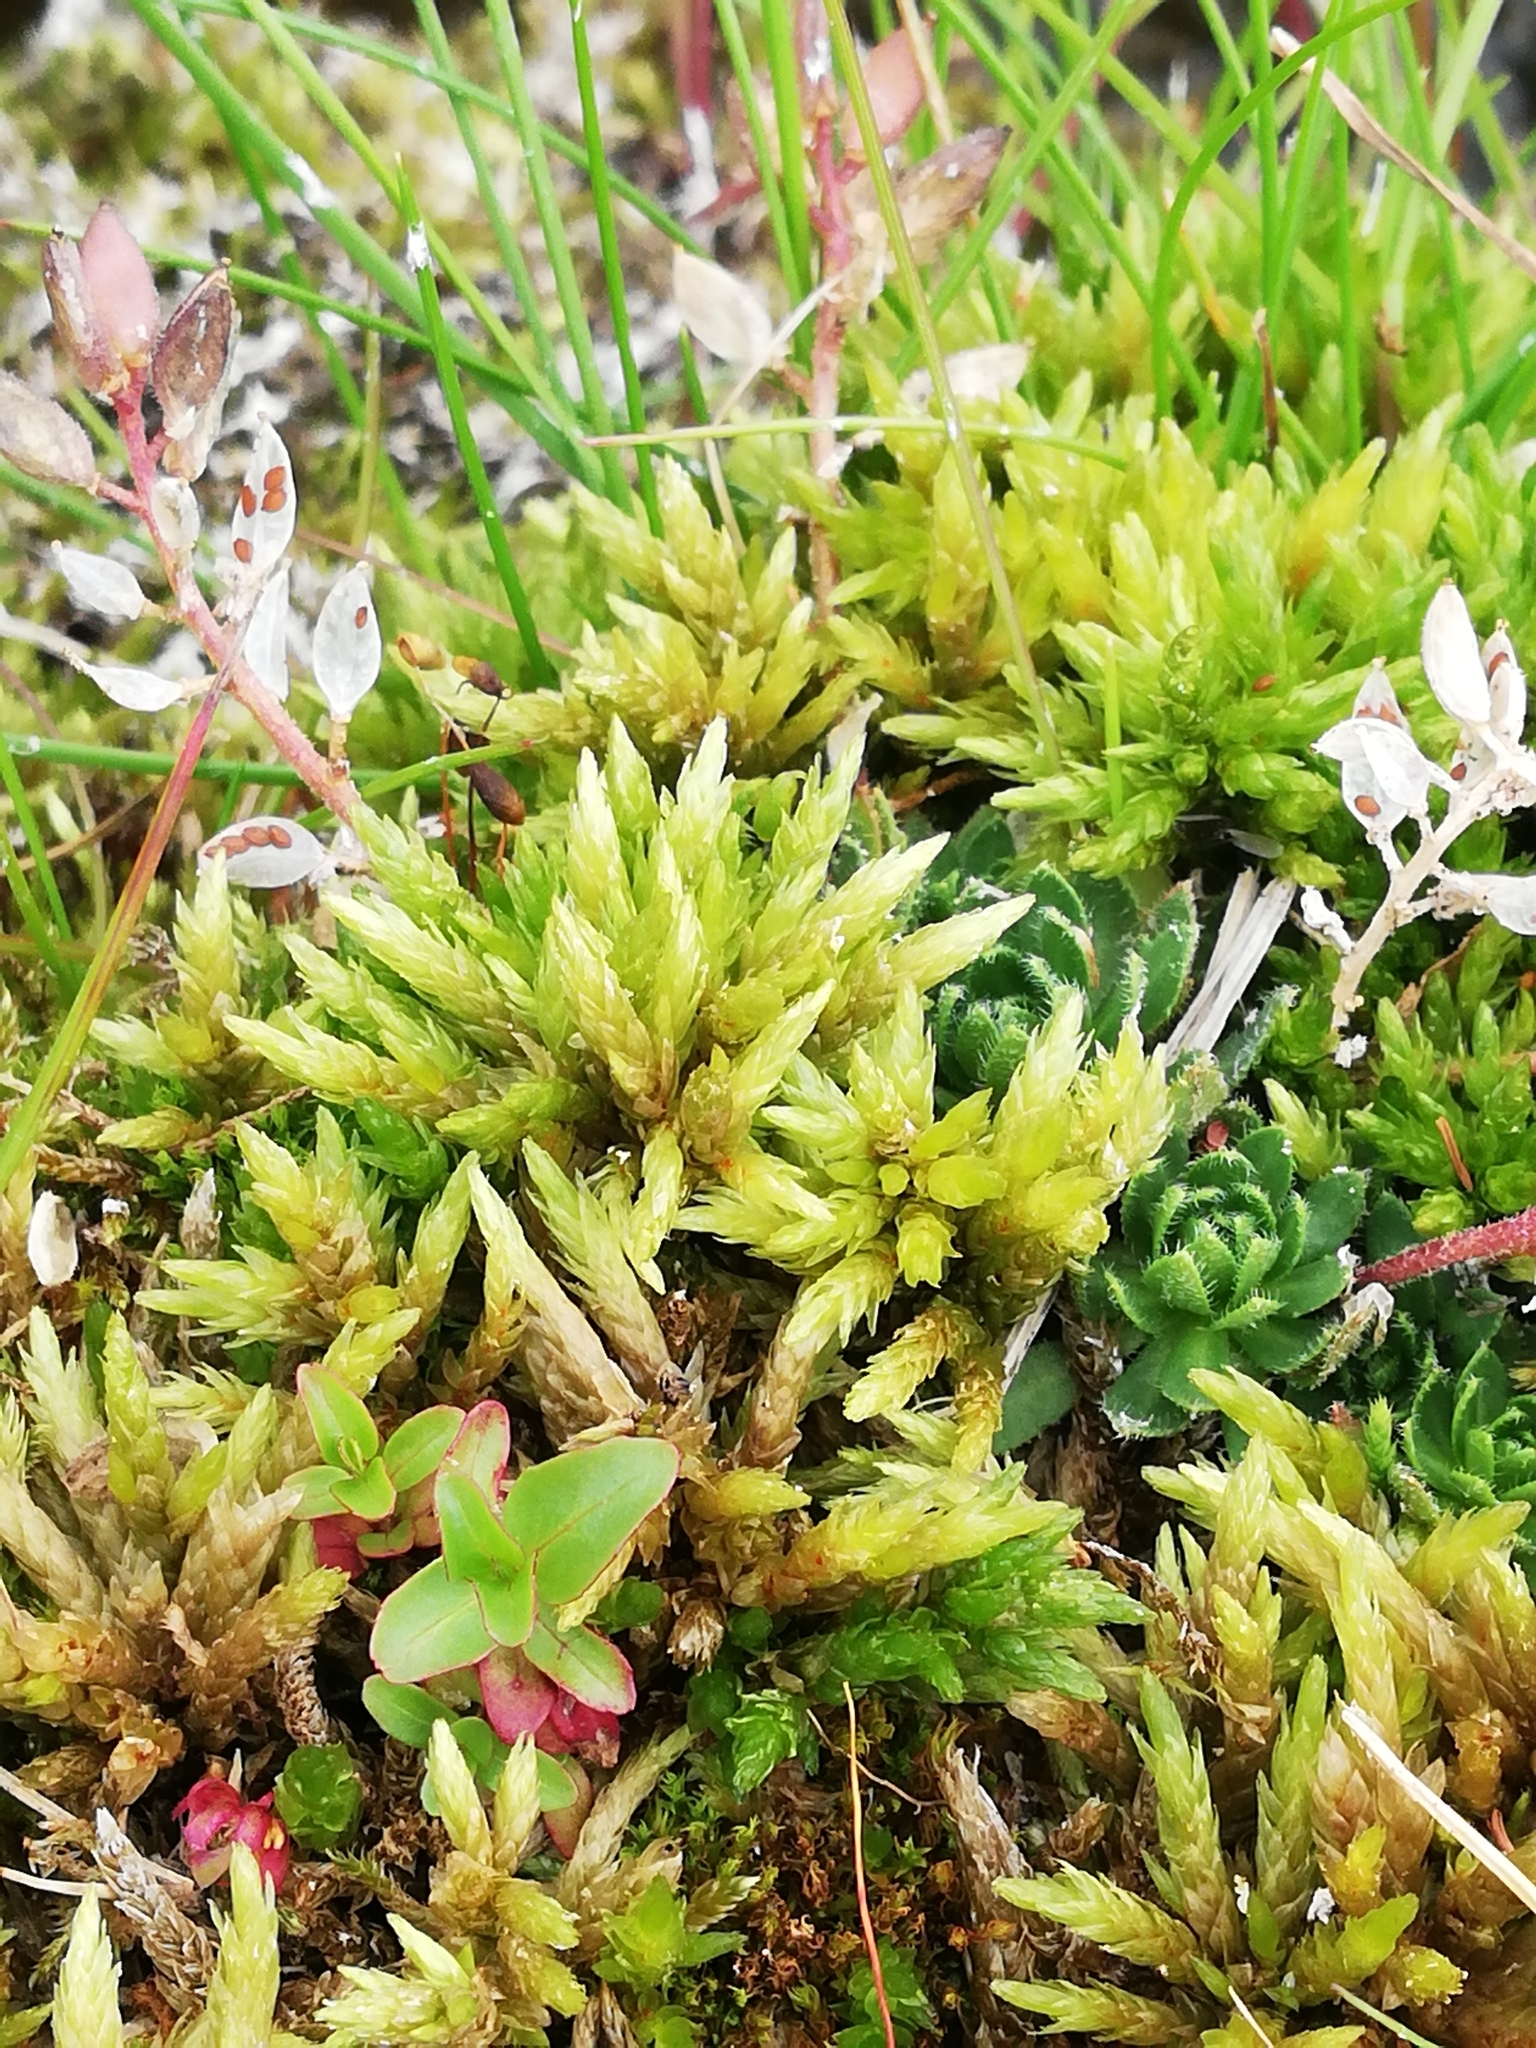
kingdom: Plantae
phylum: Bryophyta
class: Bryopsida
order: Hypnales
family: Climaciaceae
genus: Climacium
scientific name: Climacium dendroides
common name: Northern tree moss
